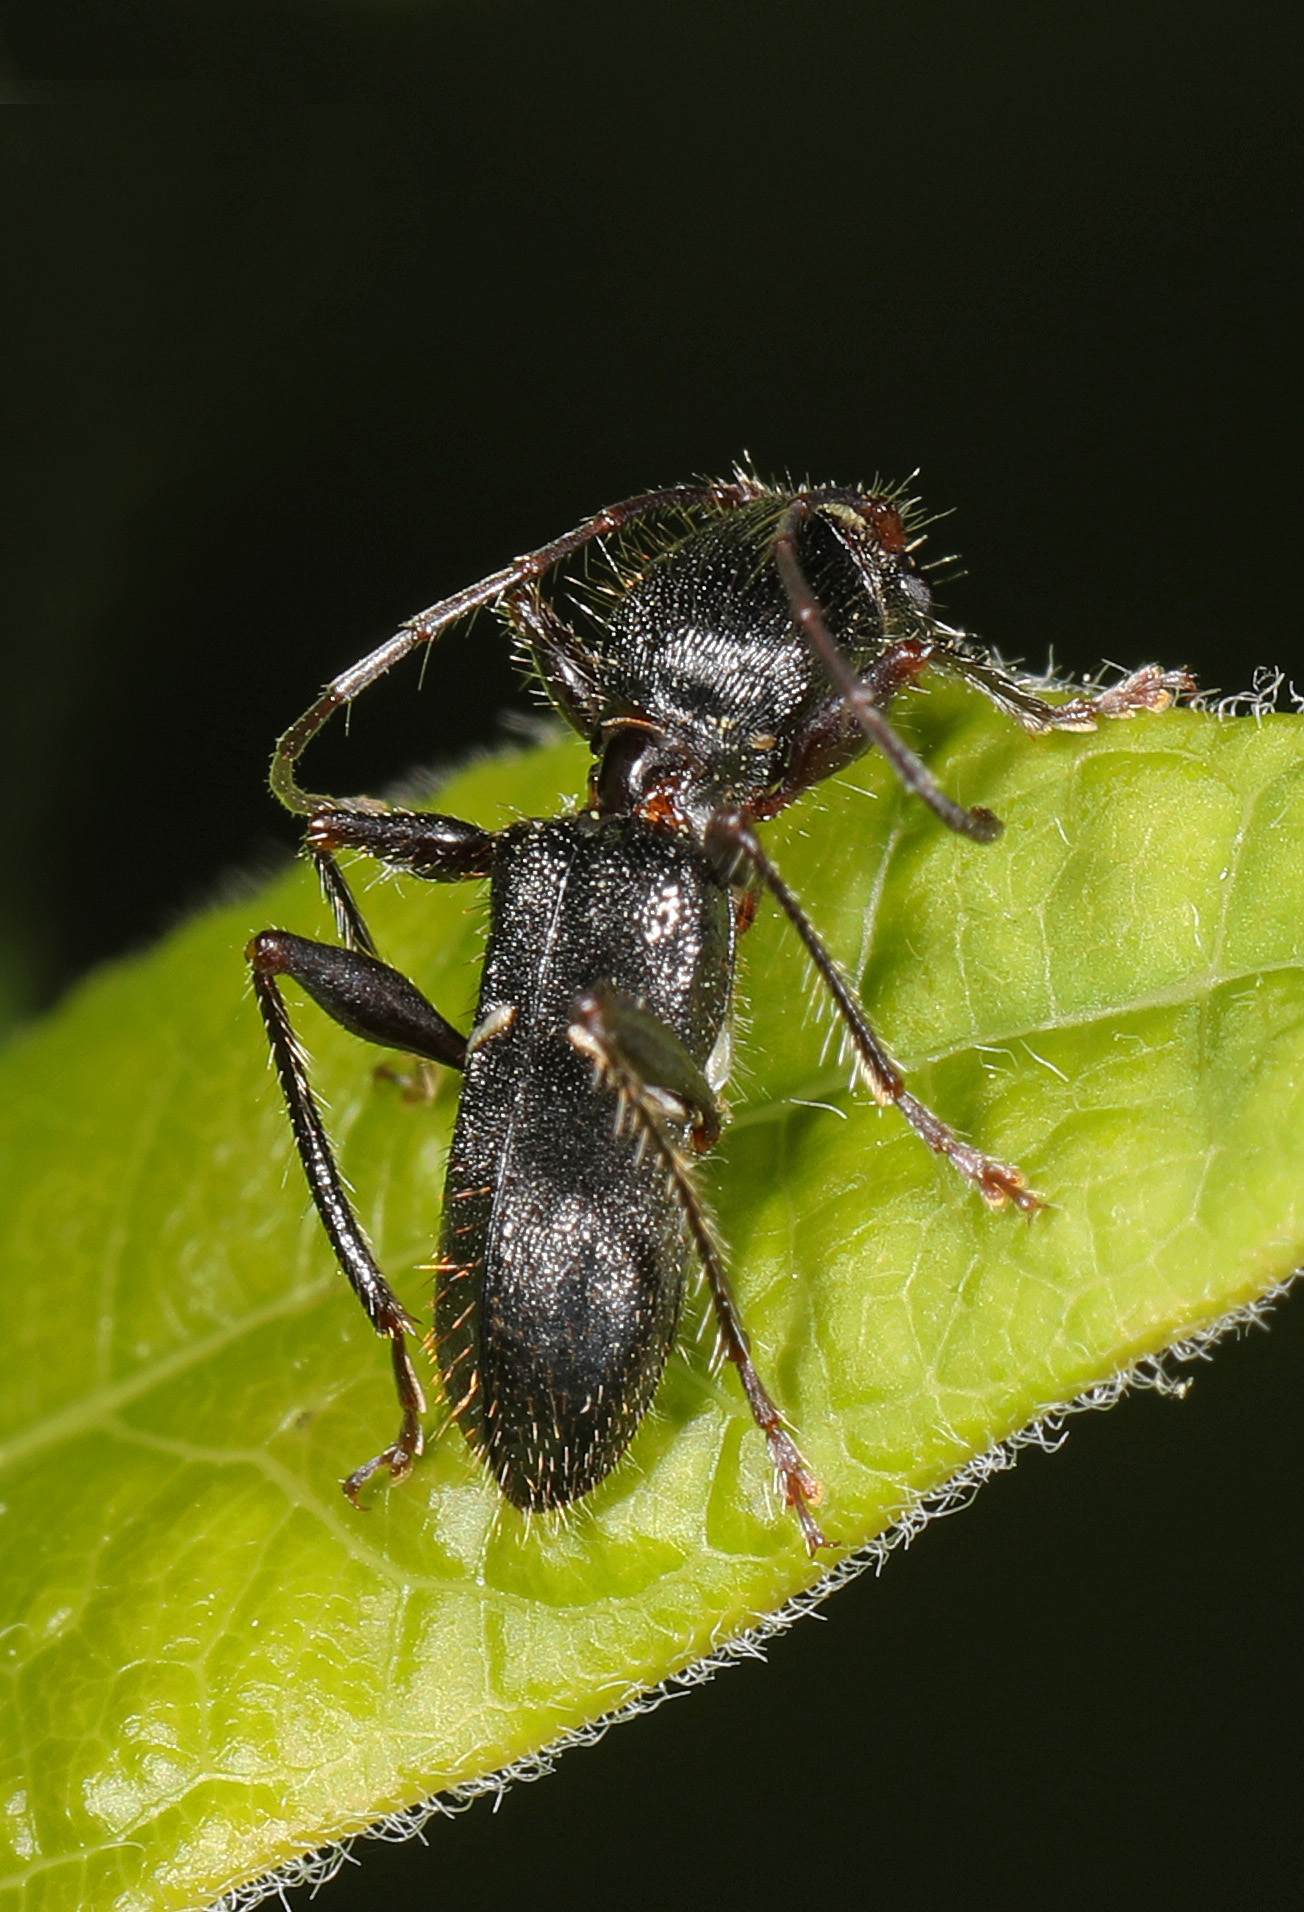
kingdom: Animalia
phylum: Arthropoda
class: Insecta
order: Coleoptera
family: Cerambycidae
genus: Euderces
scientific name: Euderces picipes
